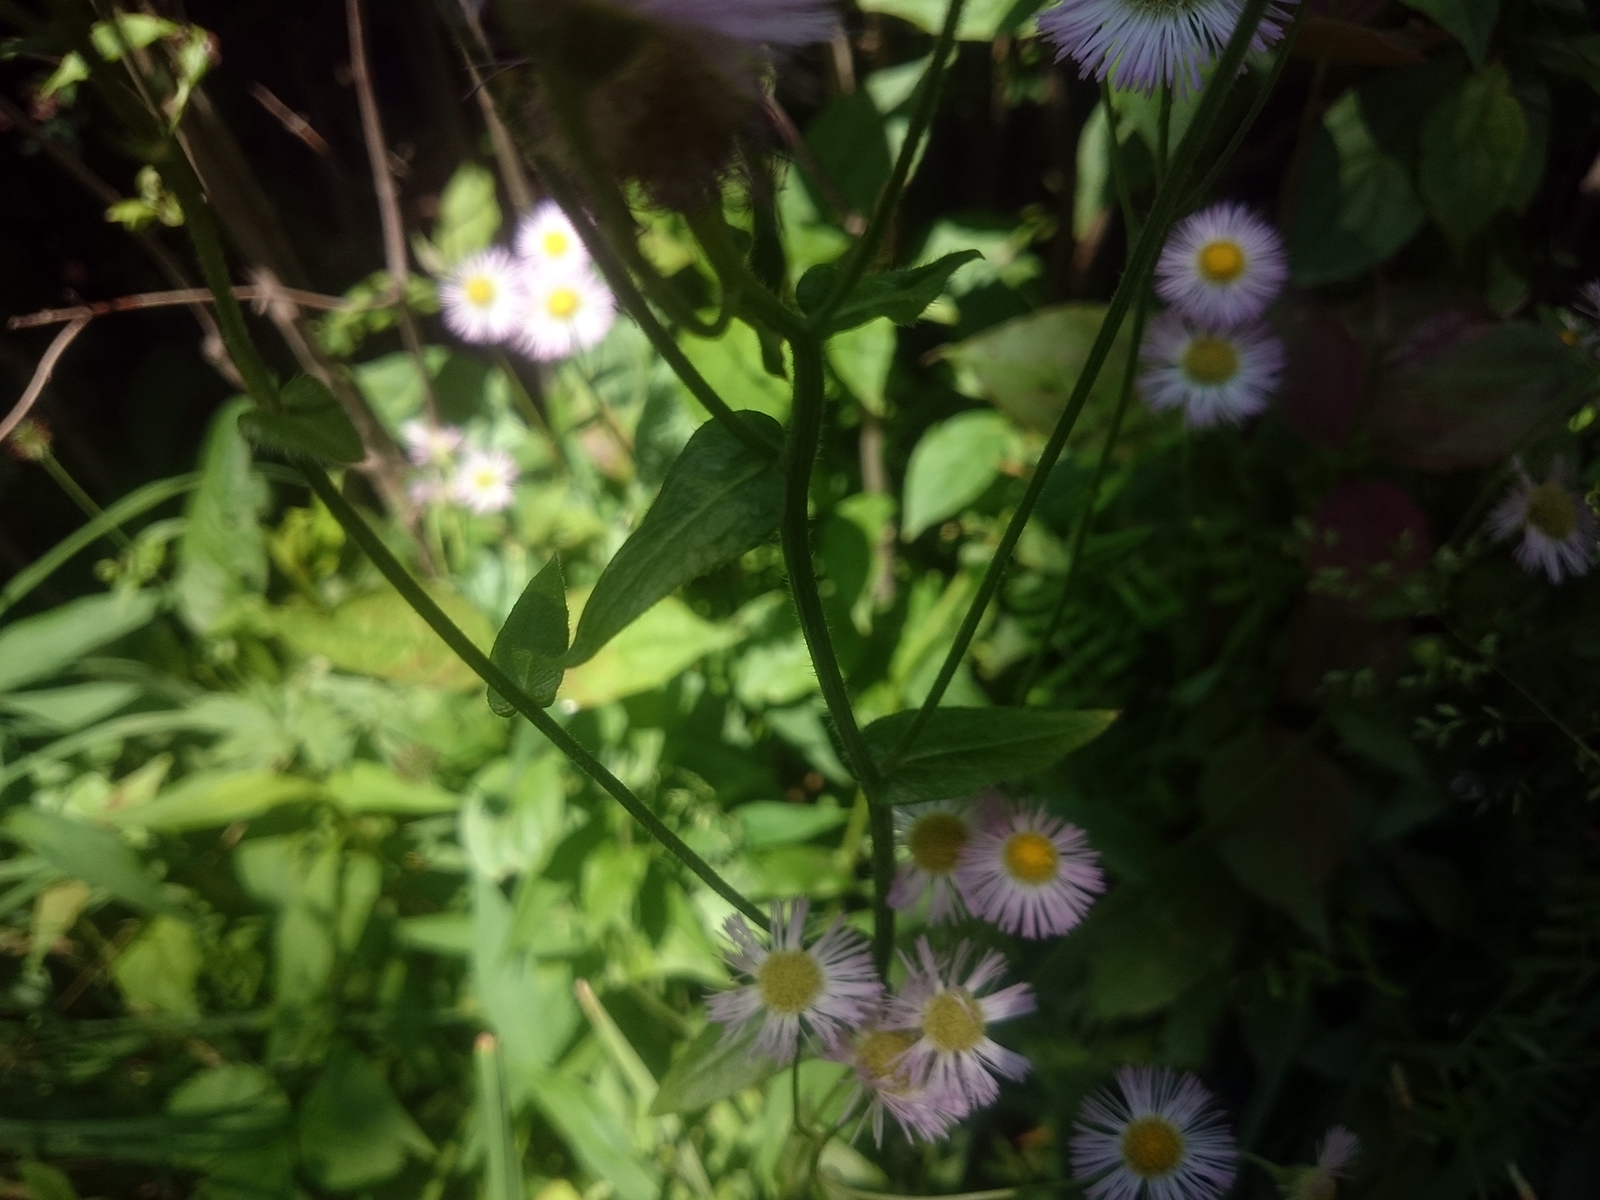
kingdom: Plantae
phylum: Tracheophyta
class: Magnoliopsida
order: Asterales
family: Asteraceae
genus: Erigeron
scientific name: Erigeron philadelphicus
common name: Robin's-plantain
